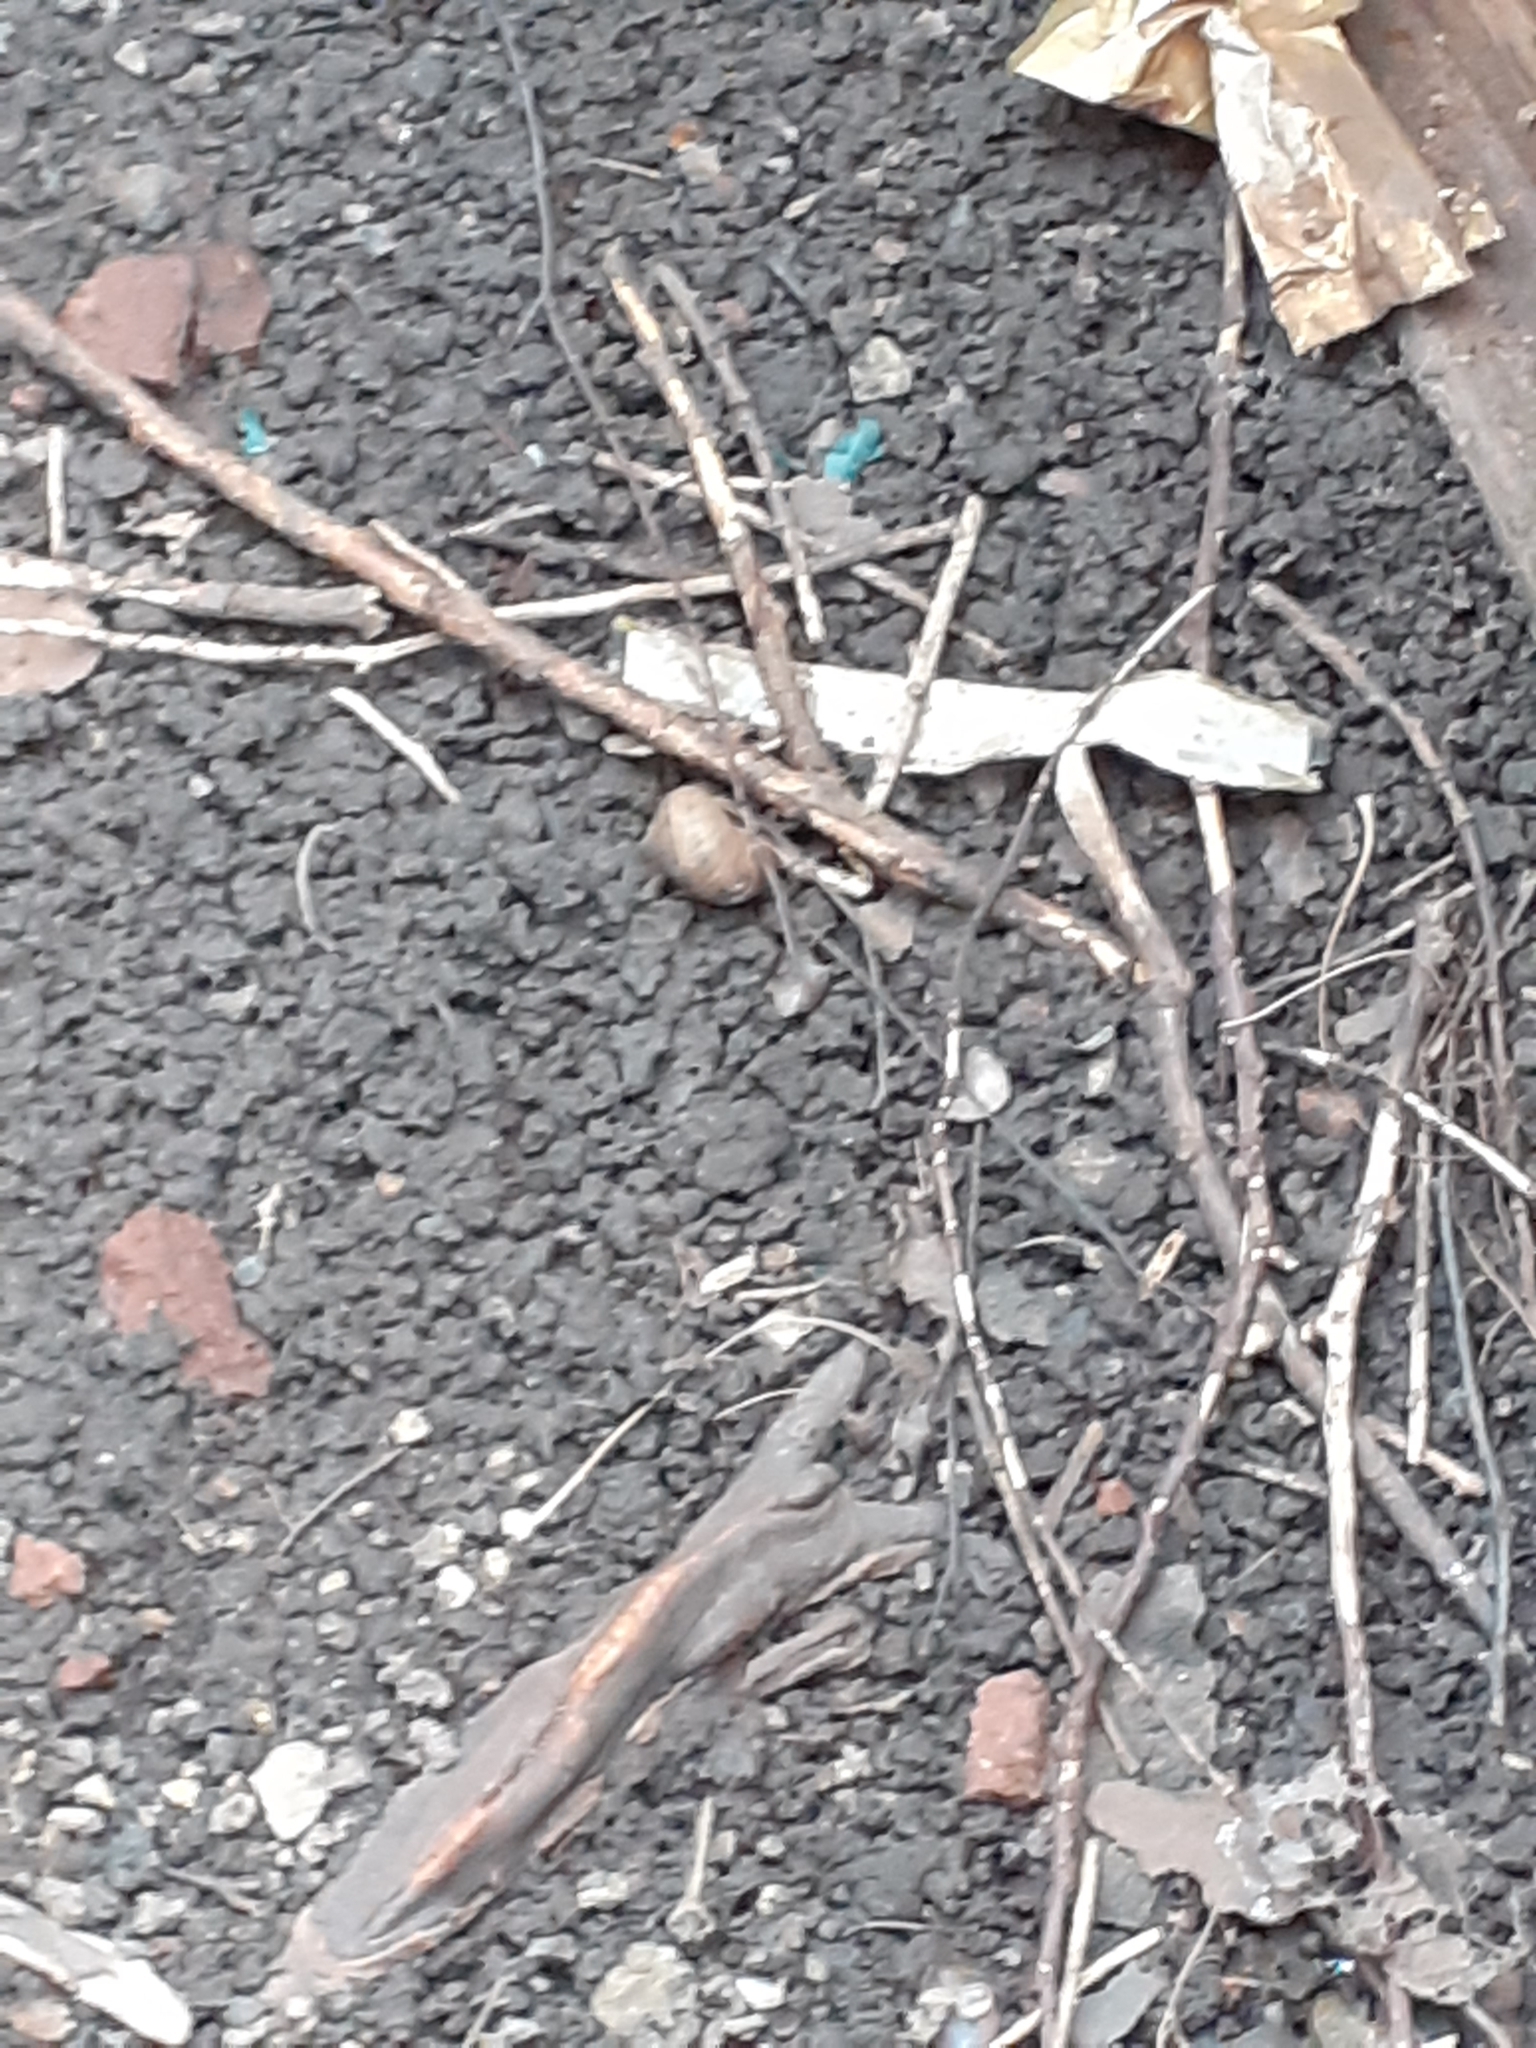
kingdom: Animalia
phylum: Mollusca
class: Gastropoda
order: Stylommatophora
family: Helicidae
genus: Cornu
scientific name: Cornu aspersum
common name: Brown garden snail
